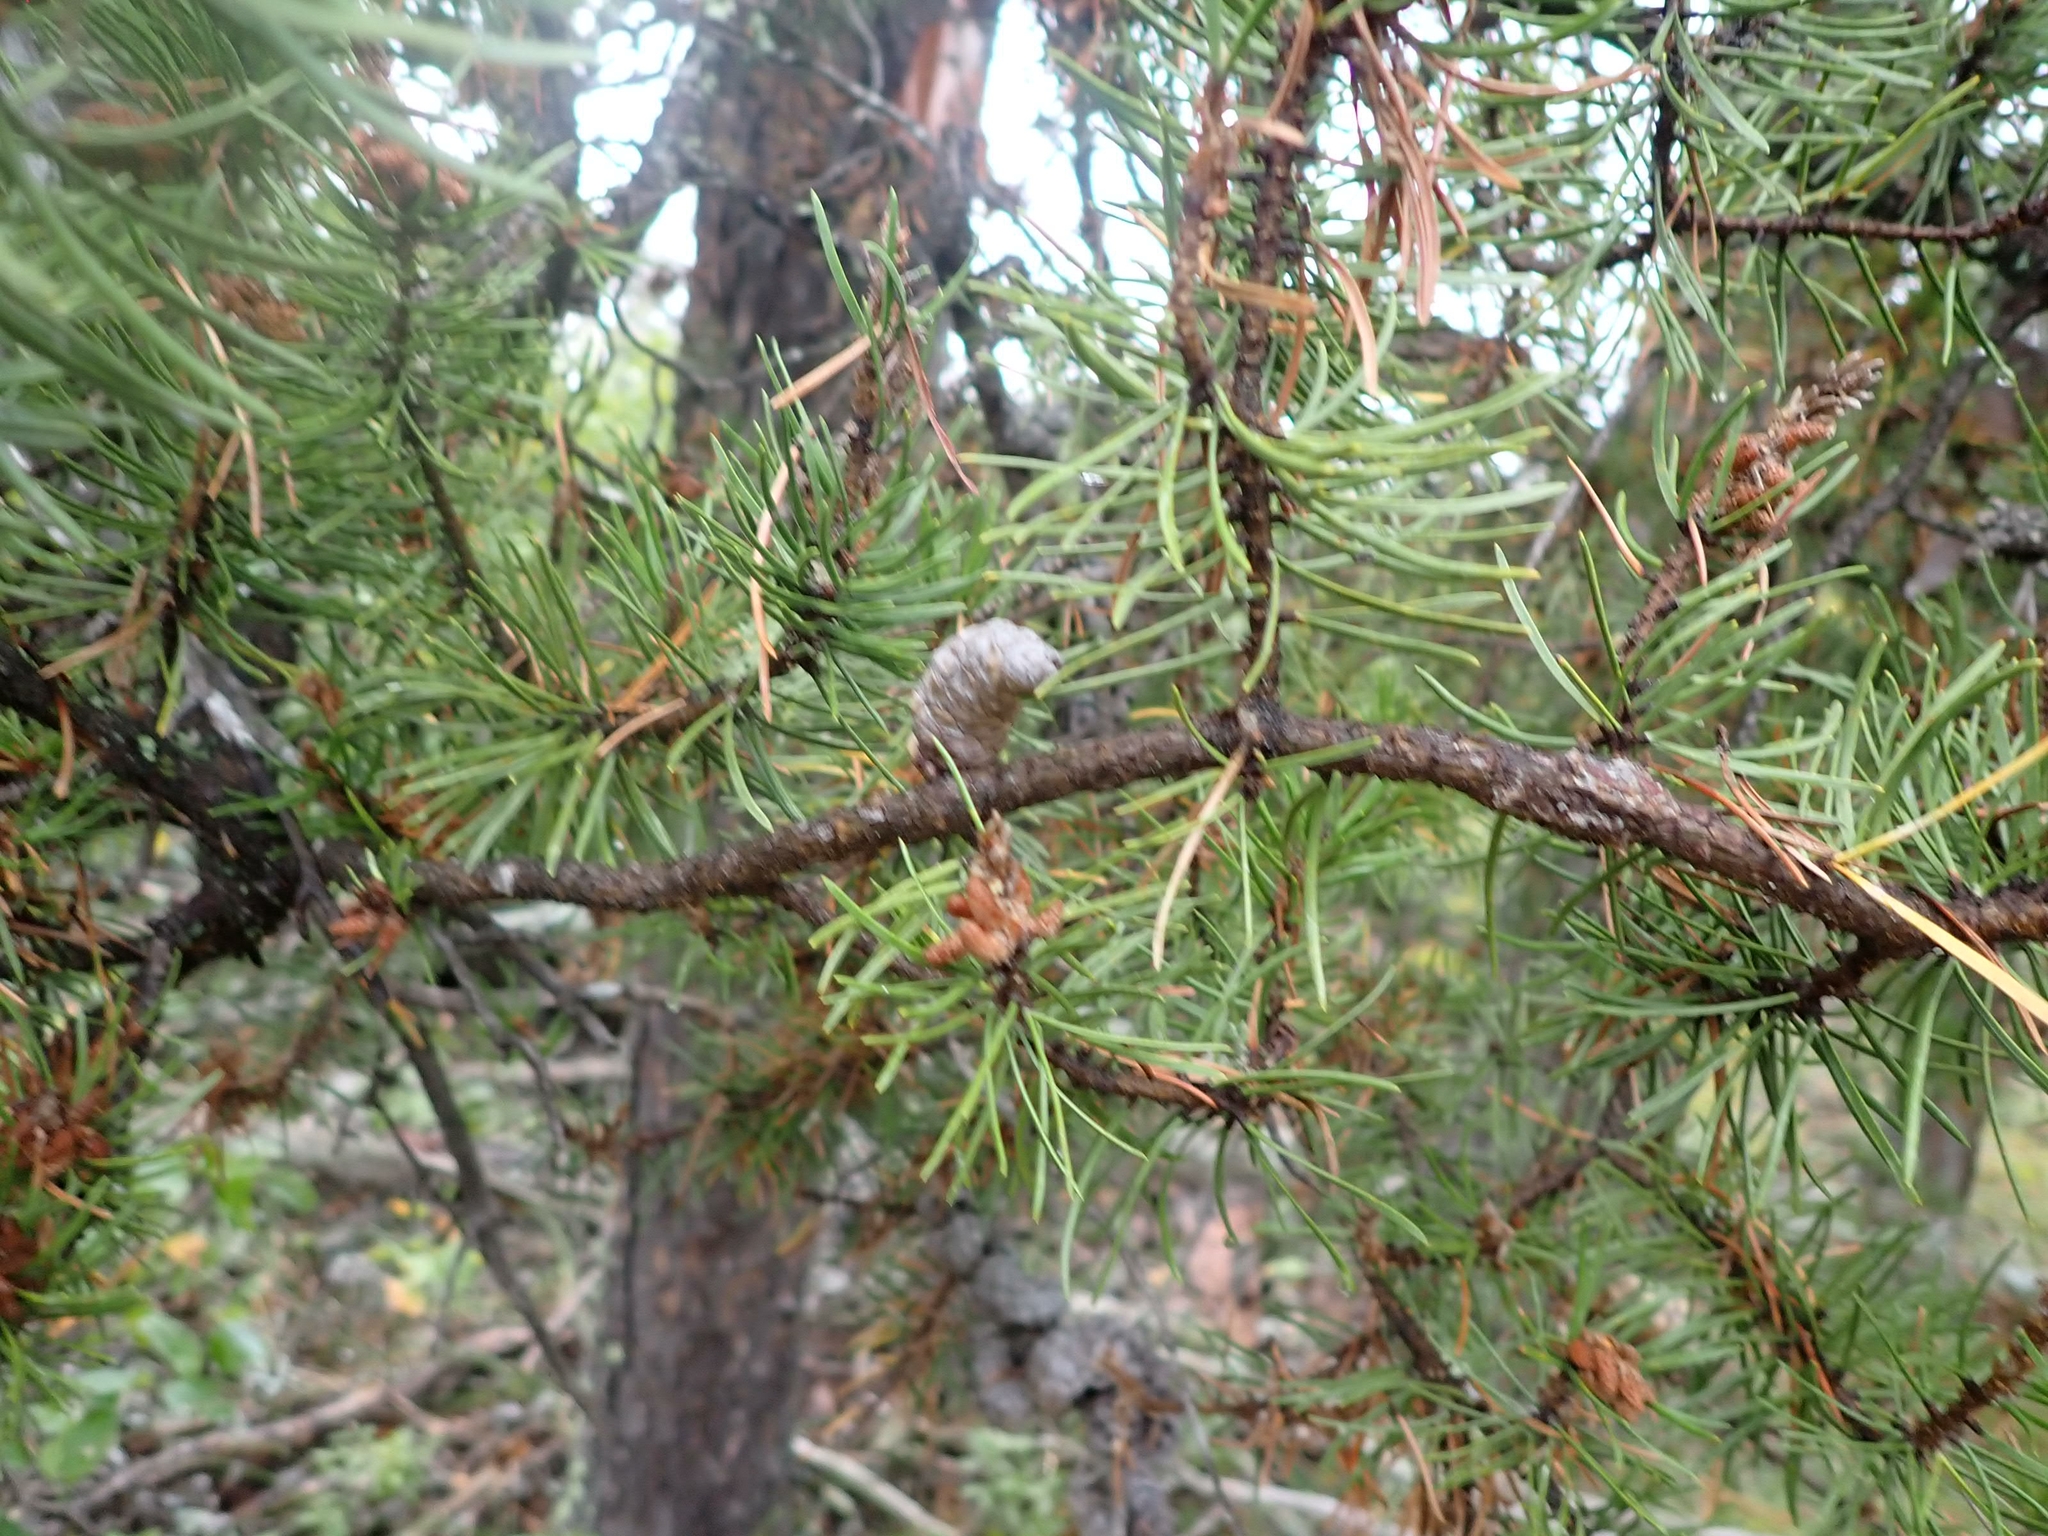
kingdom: Plantae
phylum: Tracheophyta
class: Pinopsida
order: Pinales
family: Pinaceae
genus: Pinus
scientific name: Pinus banksiana
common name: Jack pine
